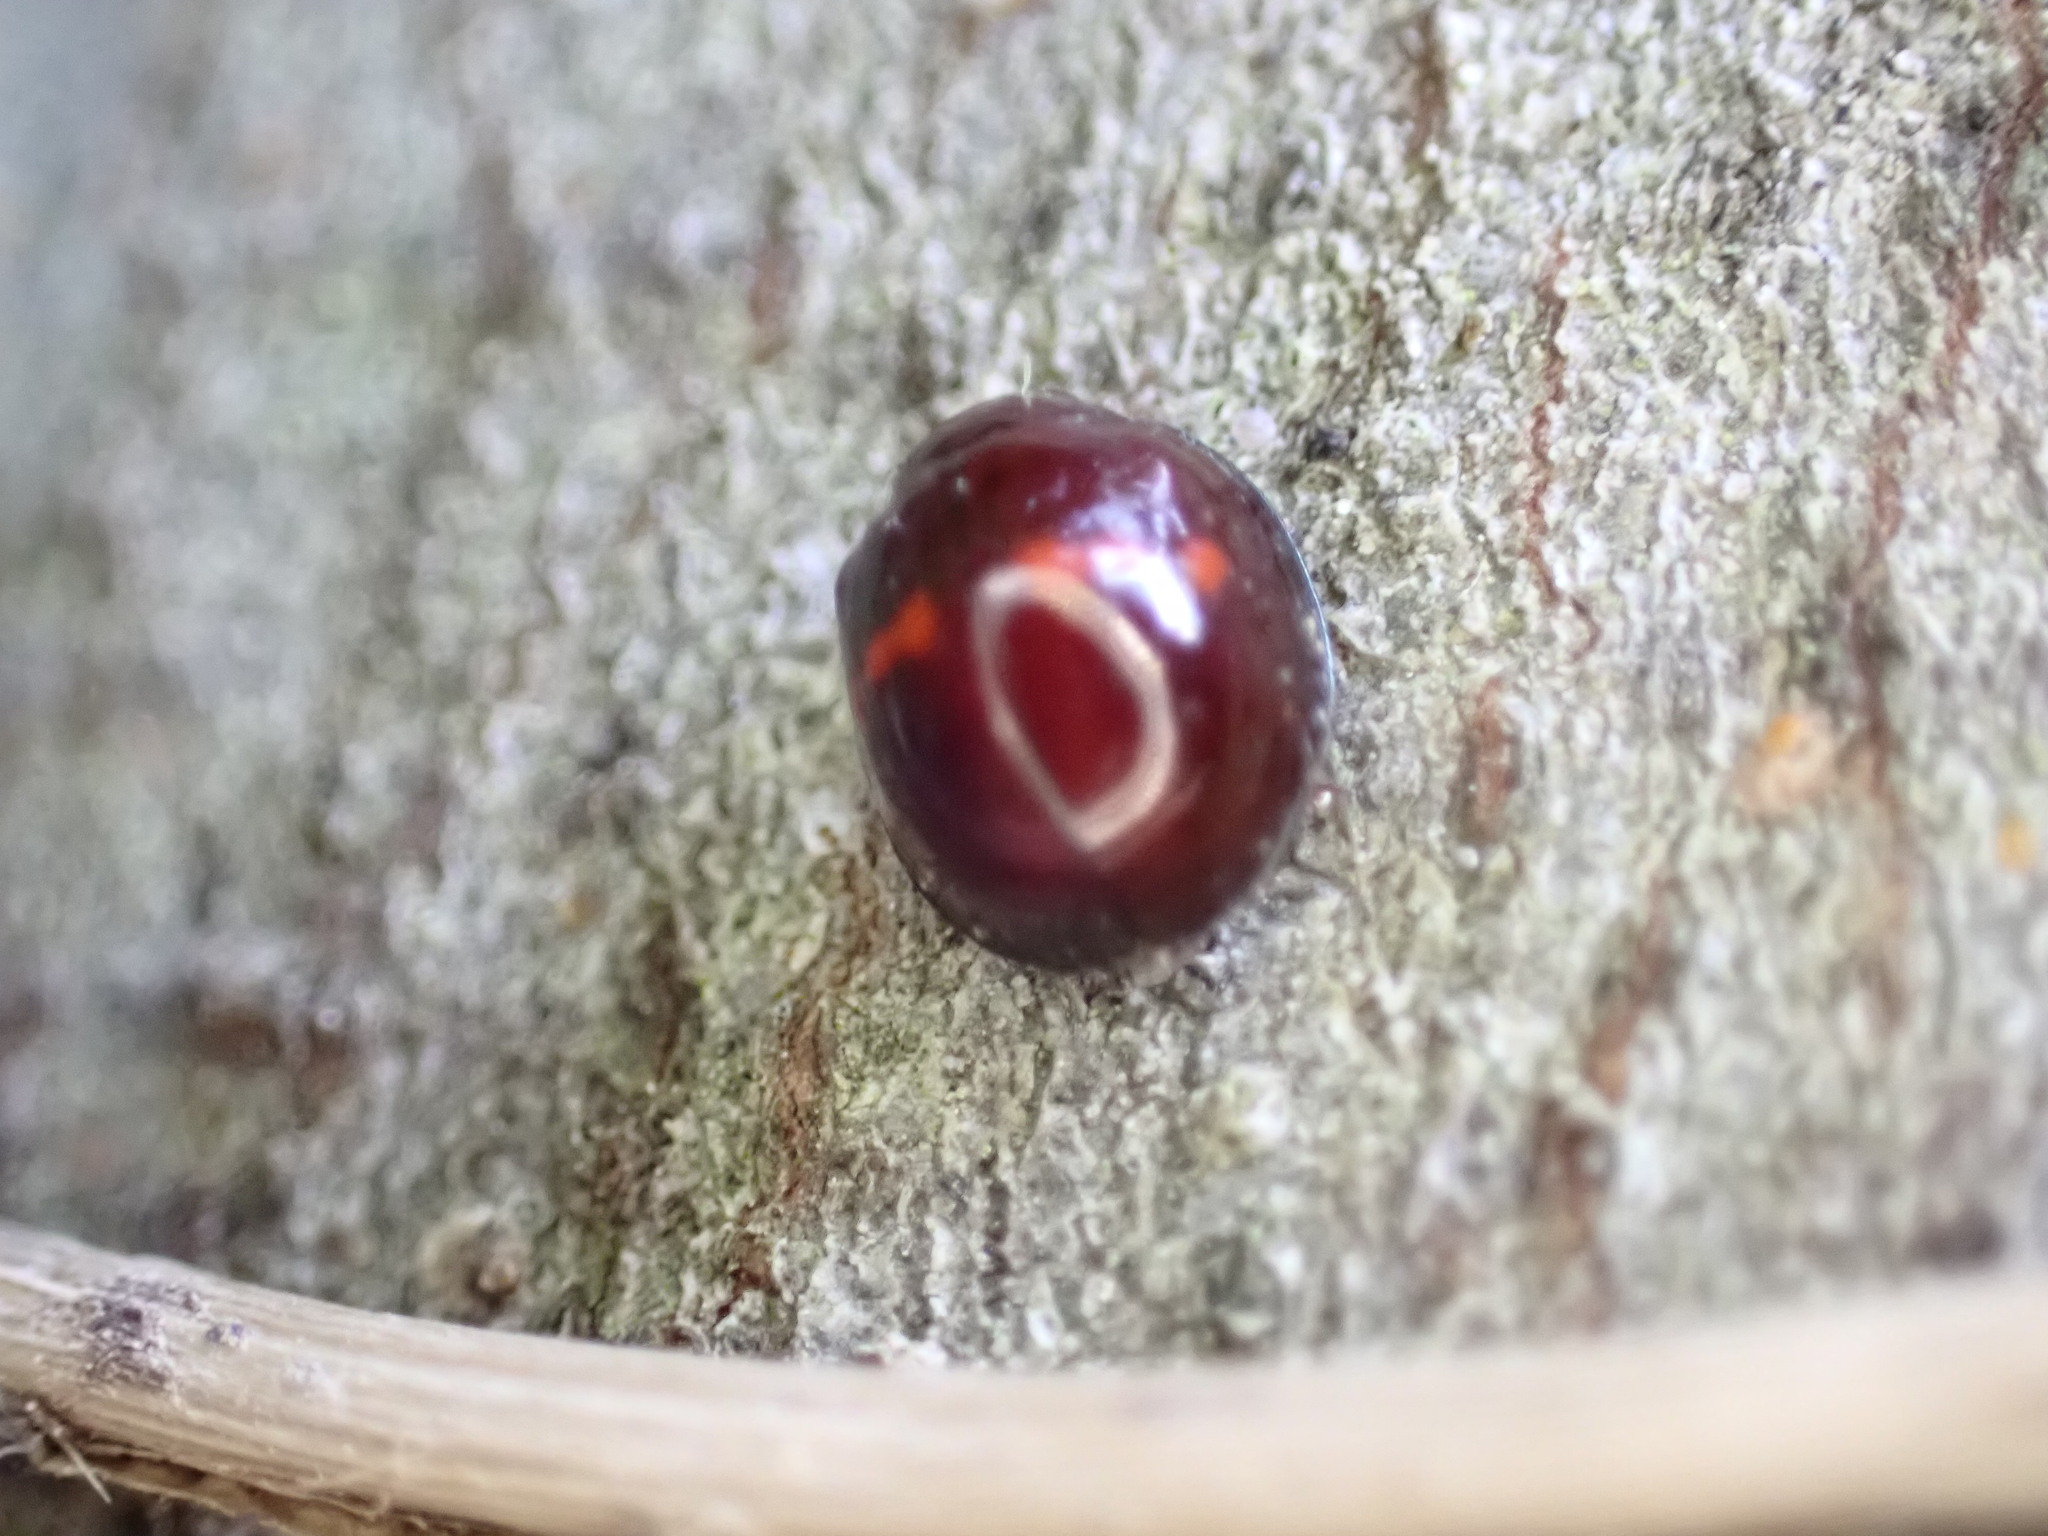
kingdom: Animalia
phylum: Arthropoda
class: Insecta
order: Coleoptera
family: Coccinellidae
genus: Chilocorus
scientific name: Chilocorus bipustulatus
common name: Heather ladybird
